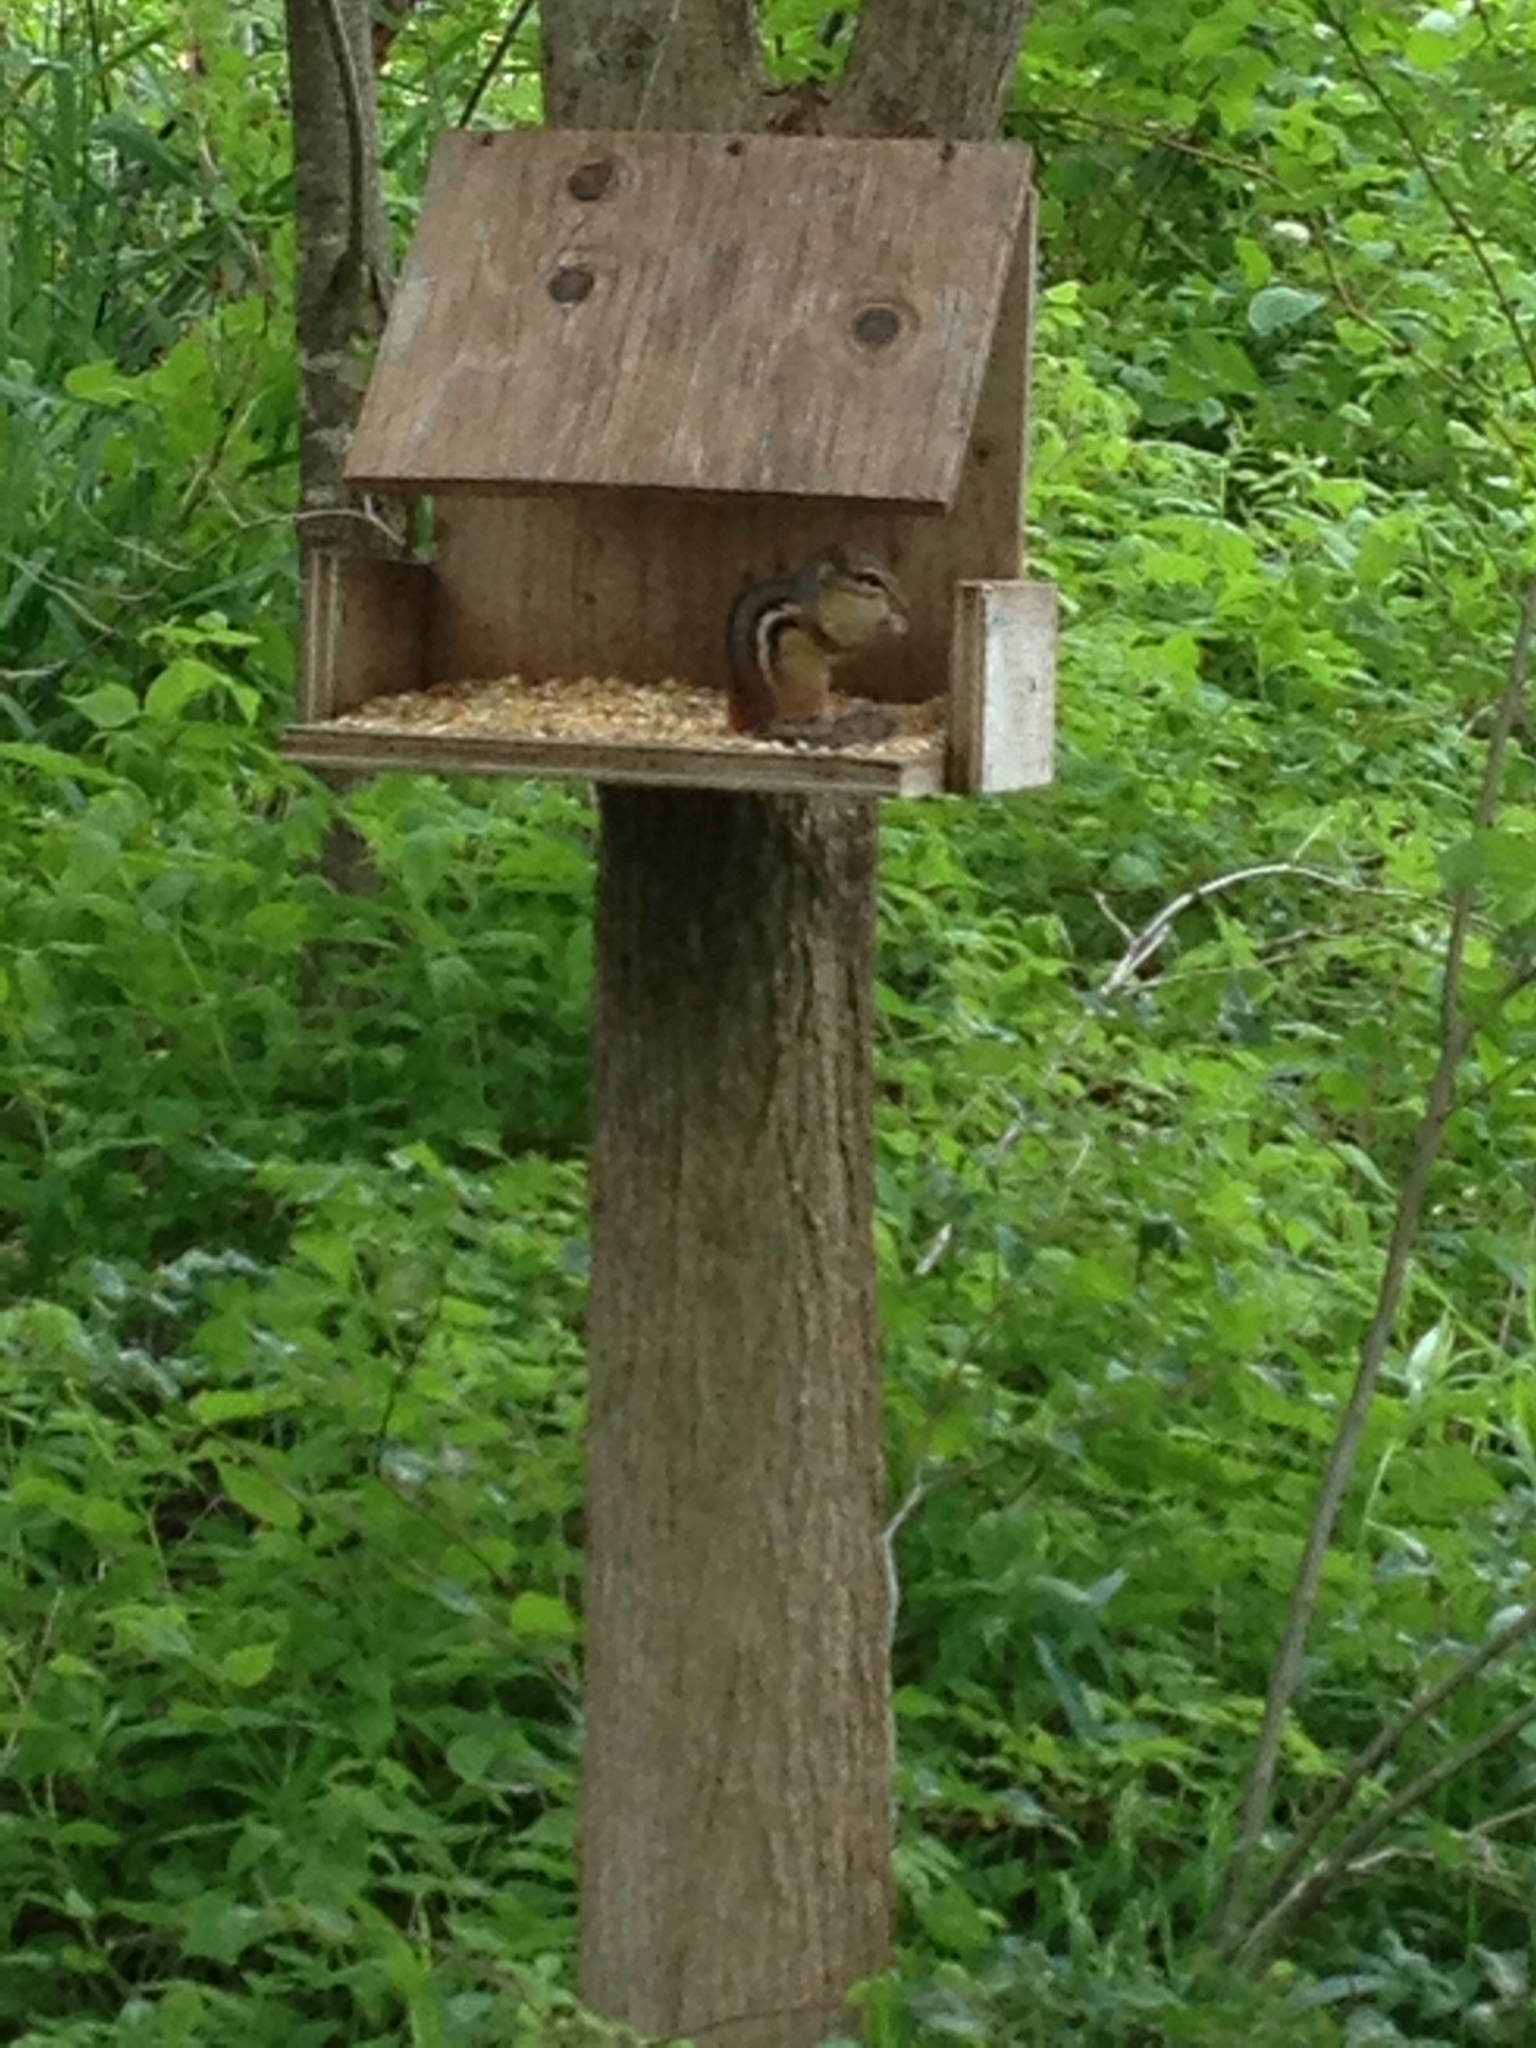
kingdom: Animalia
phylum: Chordata
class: Mammalia
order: Rodentia
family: Sciuridae
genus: Tamias
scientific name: Tamias striatus
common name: Eastern chipmunk
